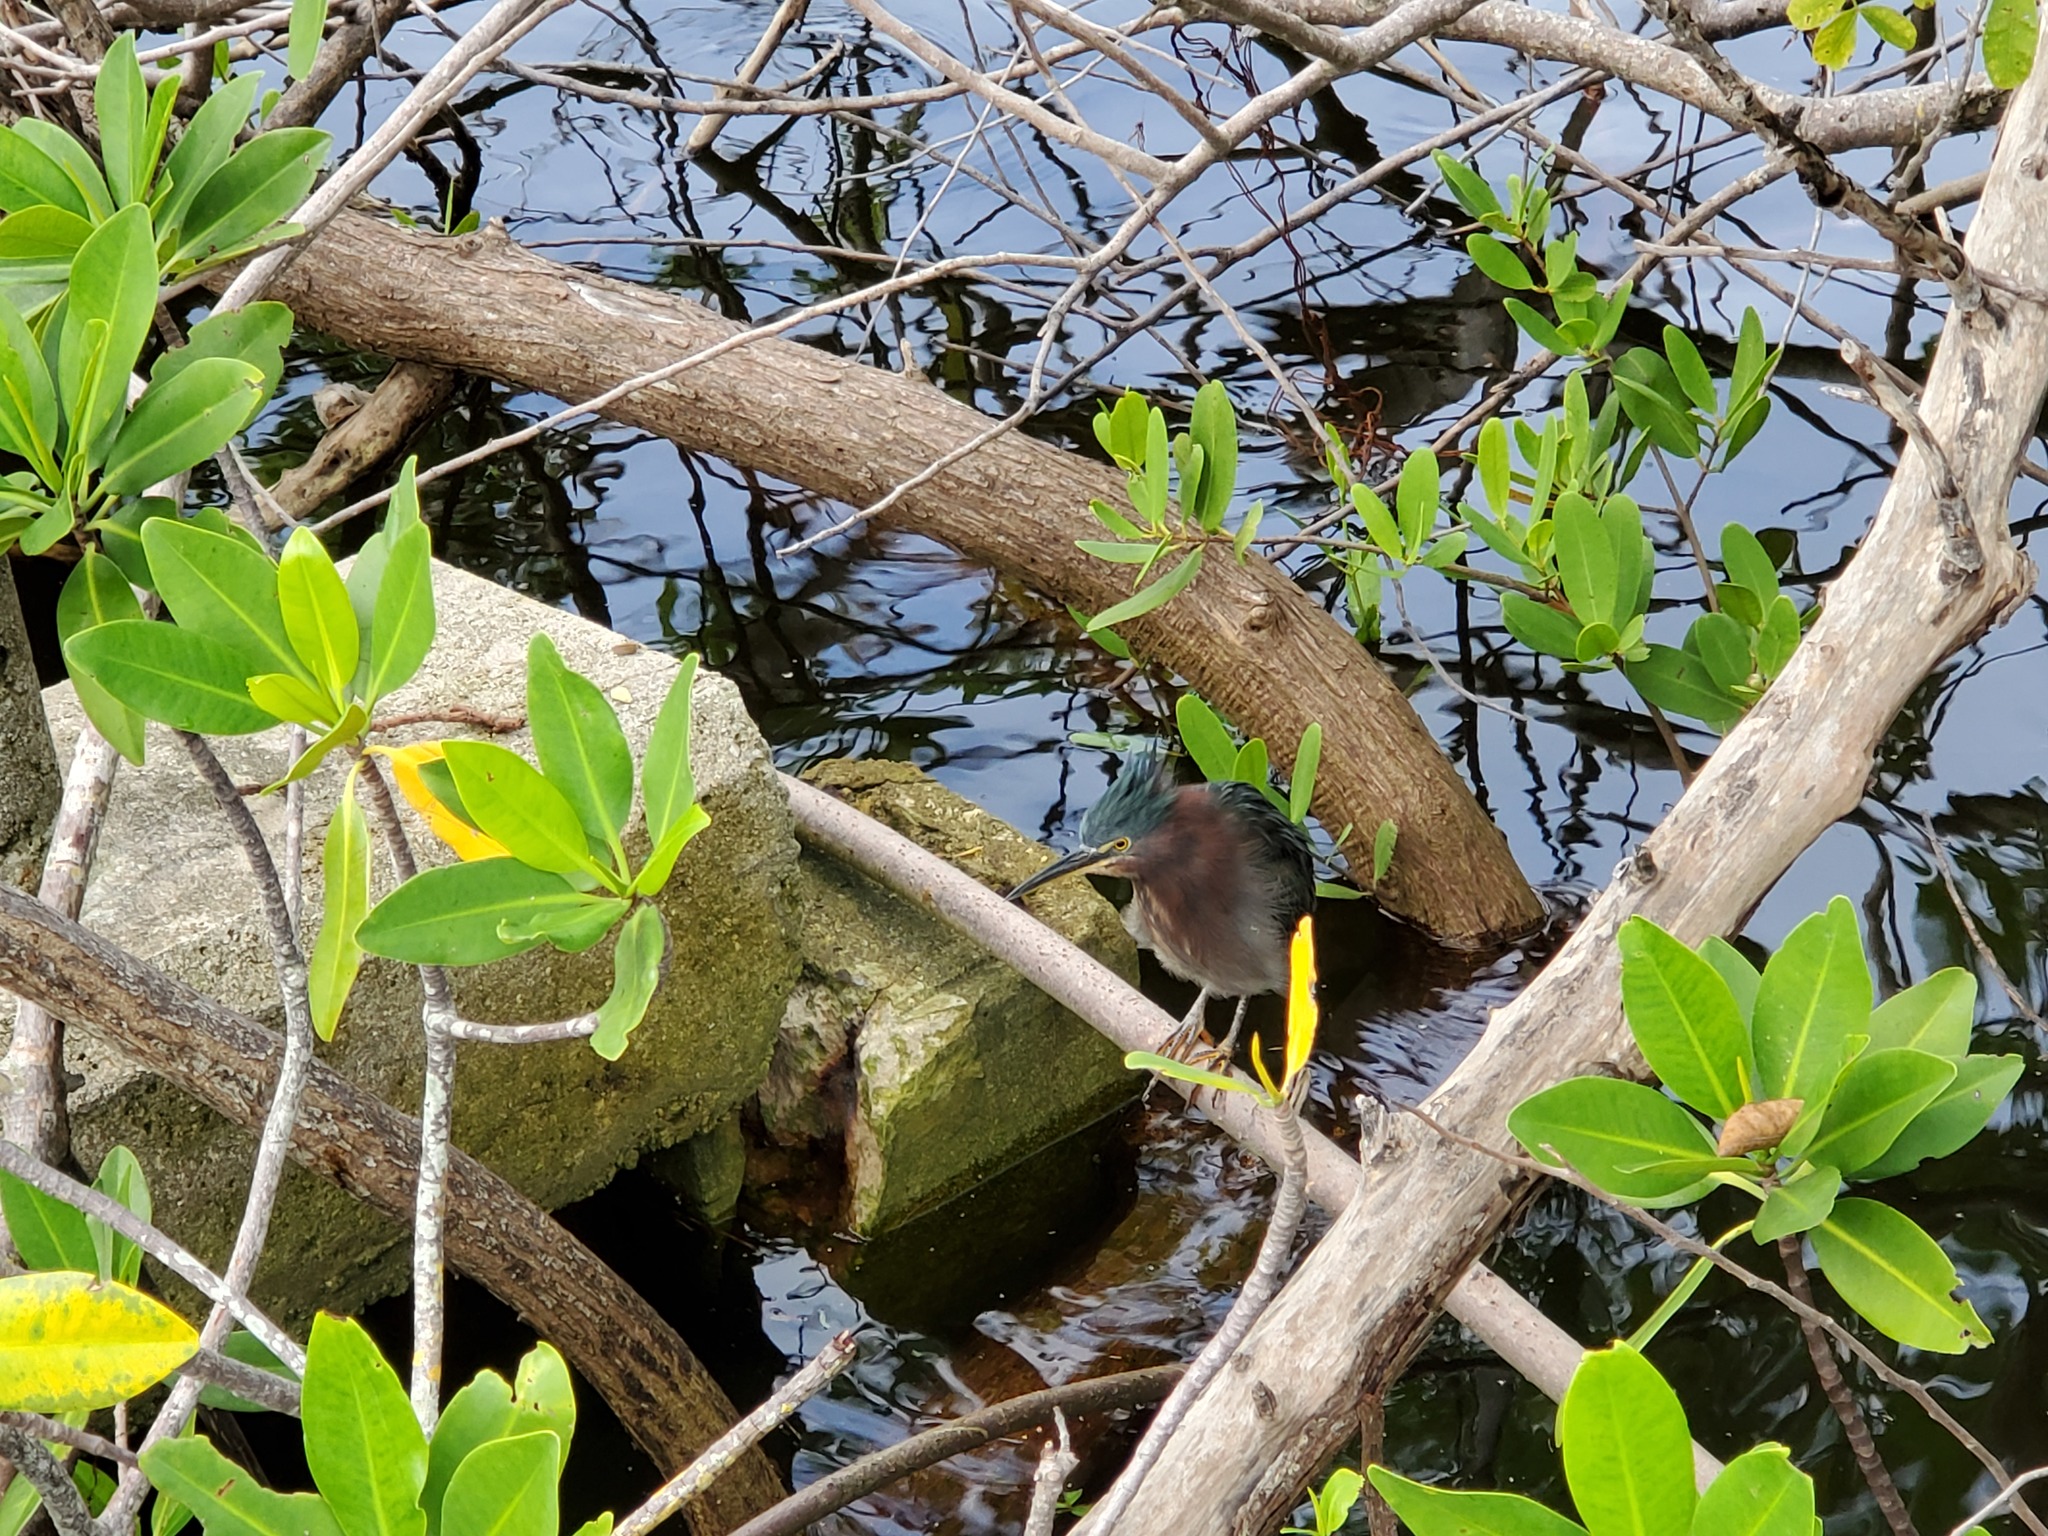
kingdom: Animalia
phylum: Chordata
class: Aves
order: Pelecaniformes
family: Ardeidae
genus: Butorides
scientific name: Butorides virescens
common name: Green heron
